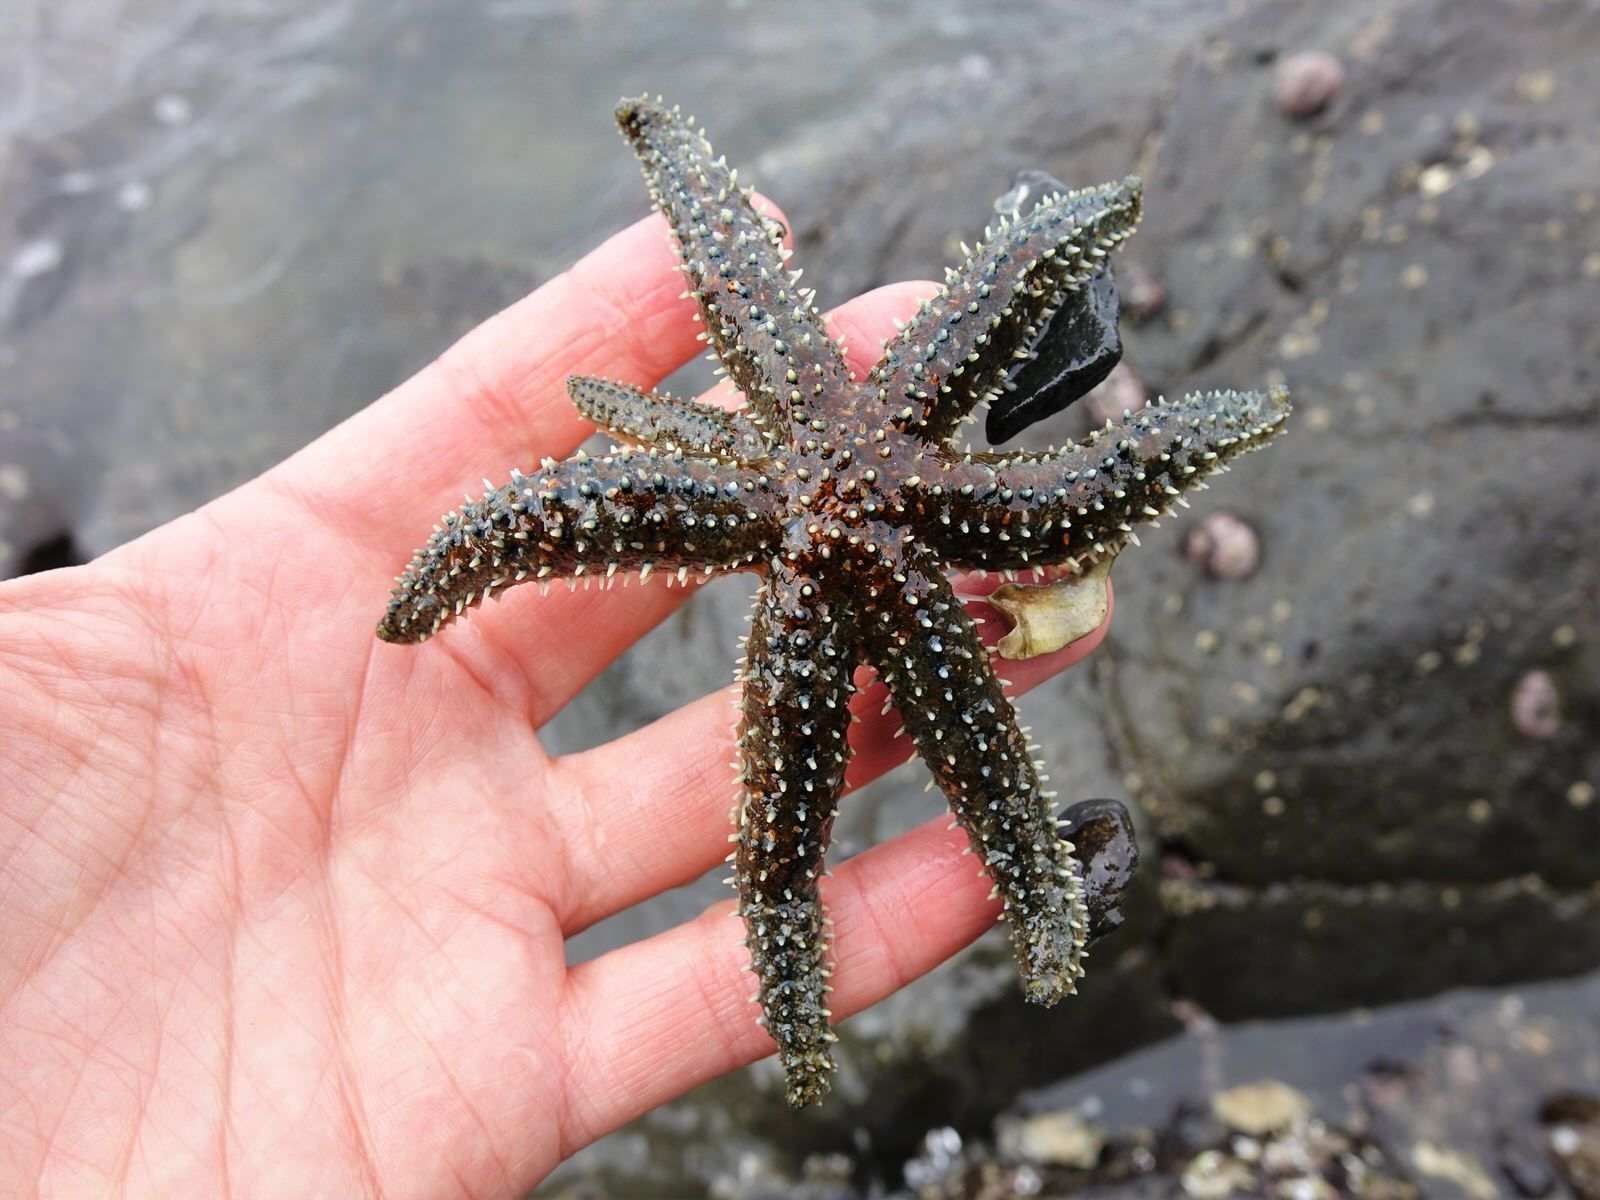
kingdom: Animalia
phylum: Echinodermata
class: Asteroidea
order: Forcipulatida
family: Asteriidae
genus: Coscinasterias
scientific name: Coscinasterias muricata
